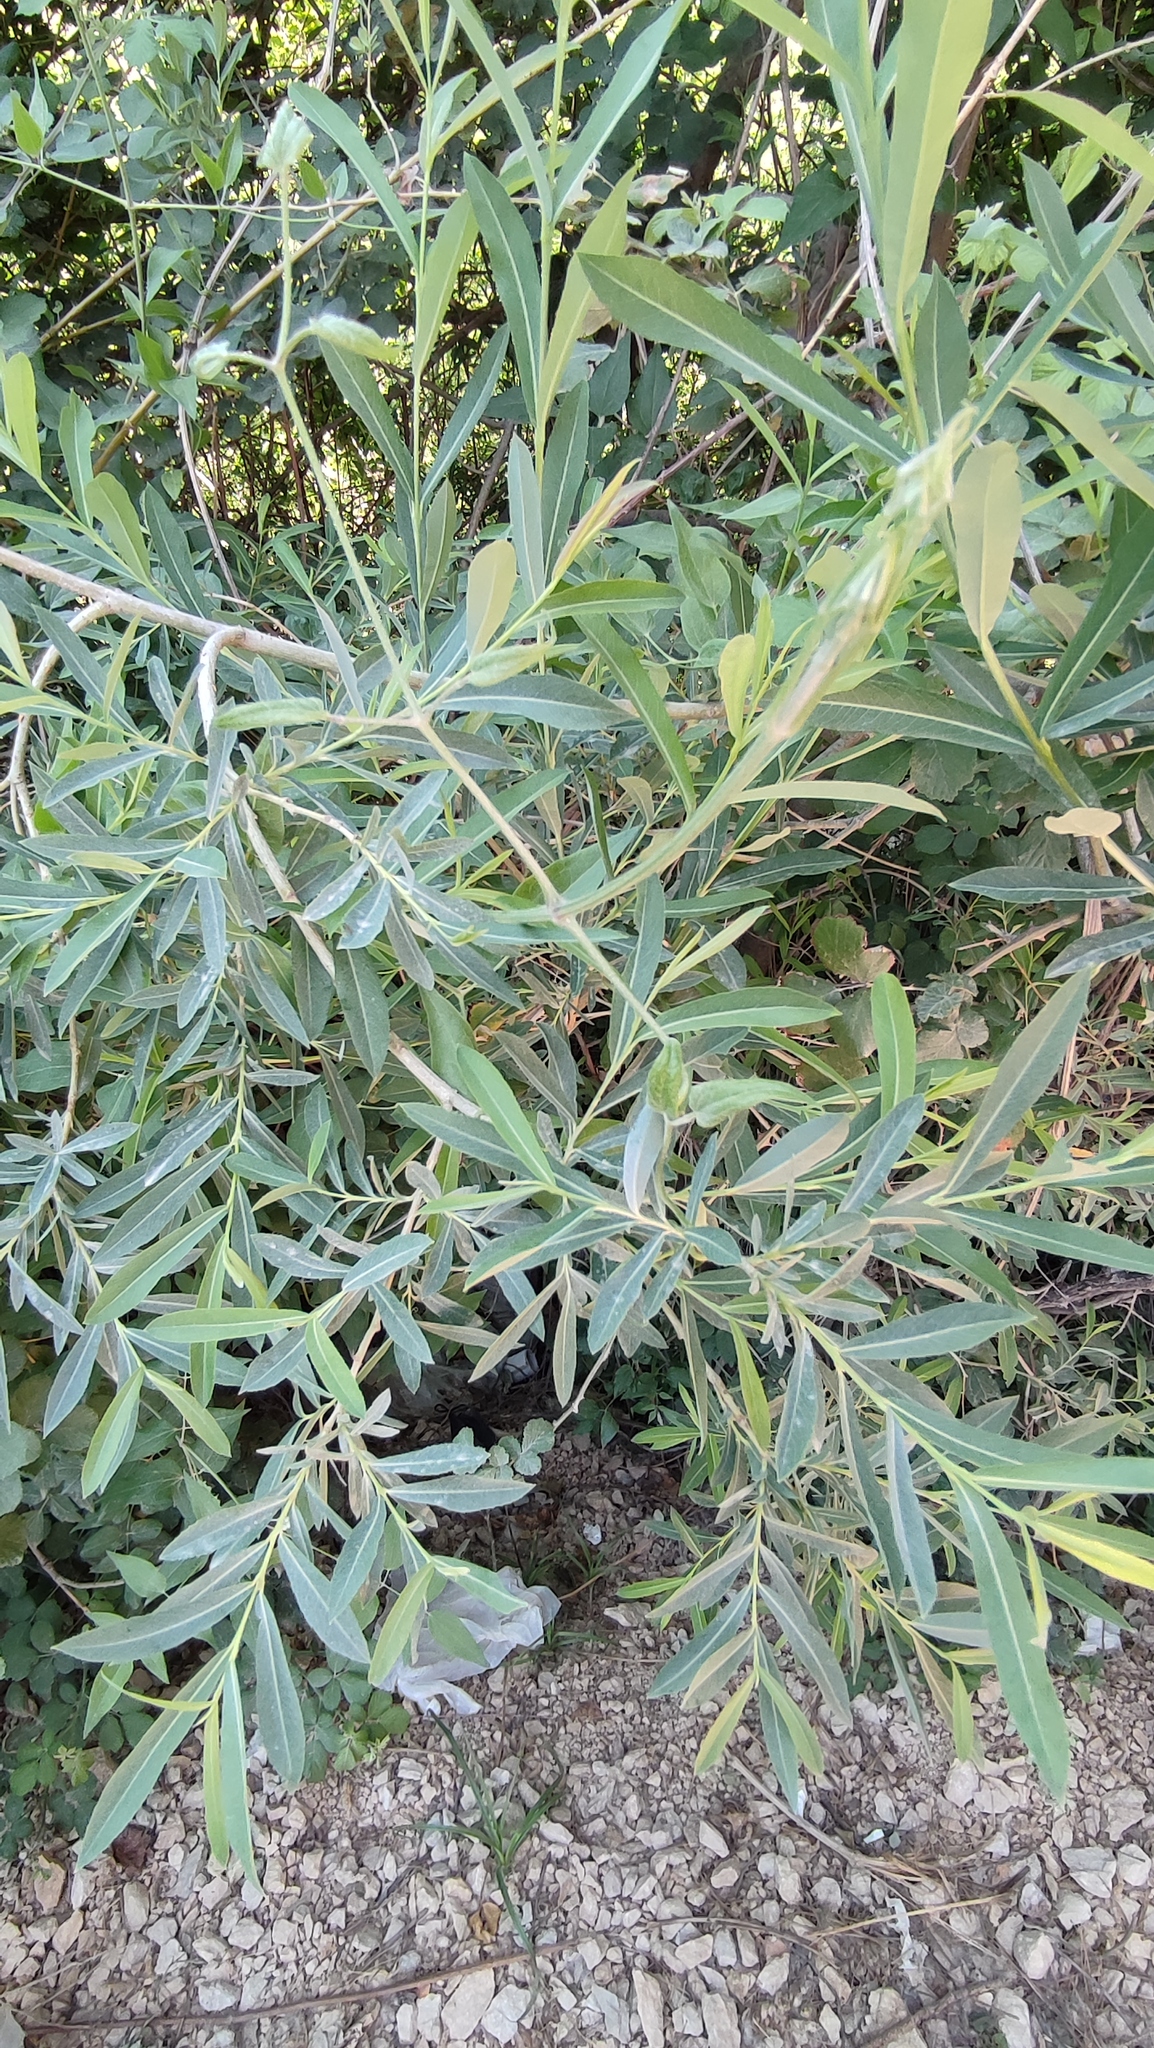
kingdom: Plantae
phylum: Tracheophyta
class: Magnoliopsida
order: Malpighiales
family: Salicaceae
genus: Salix
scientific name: Salix purpurea
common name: Purple willow
